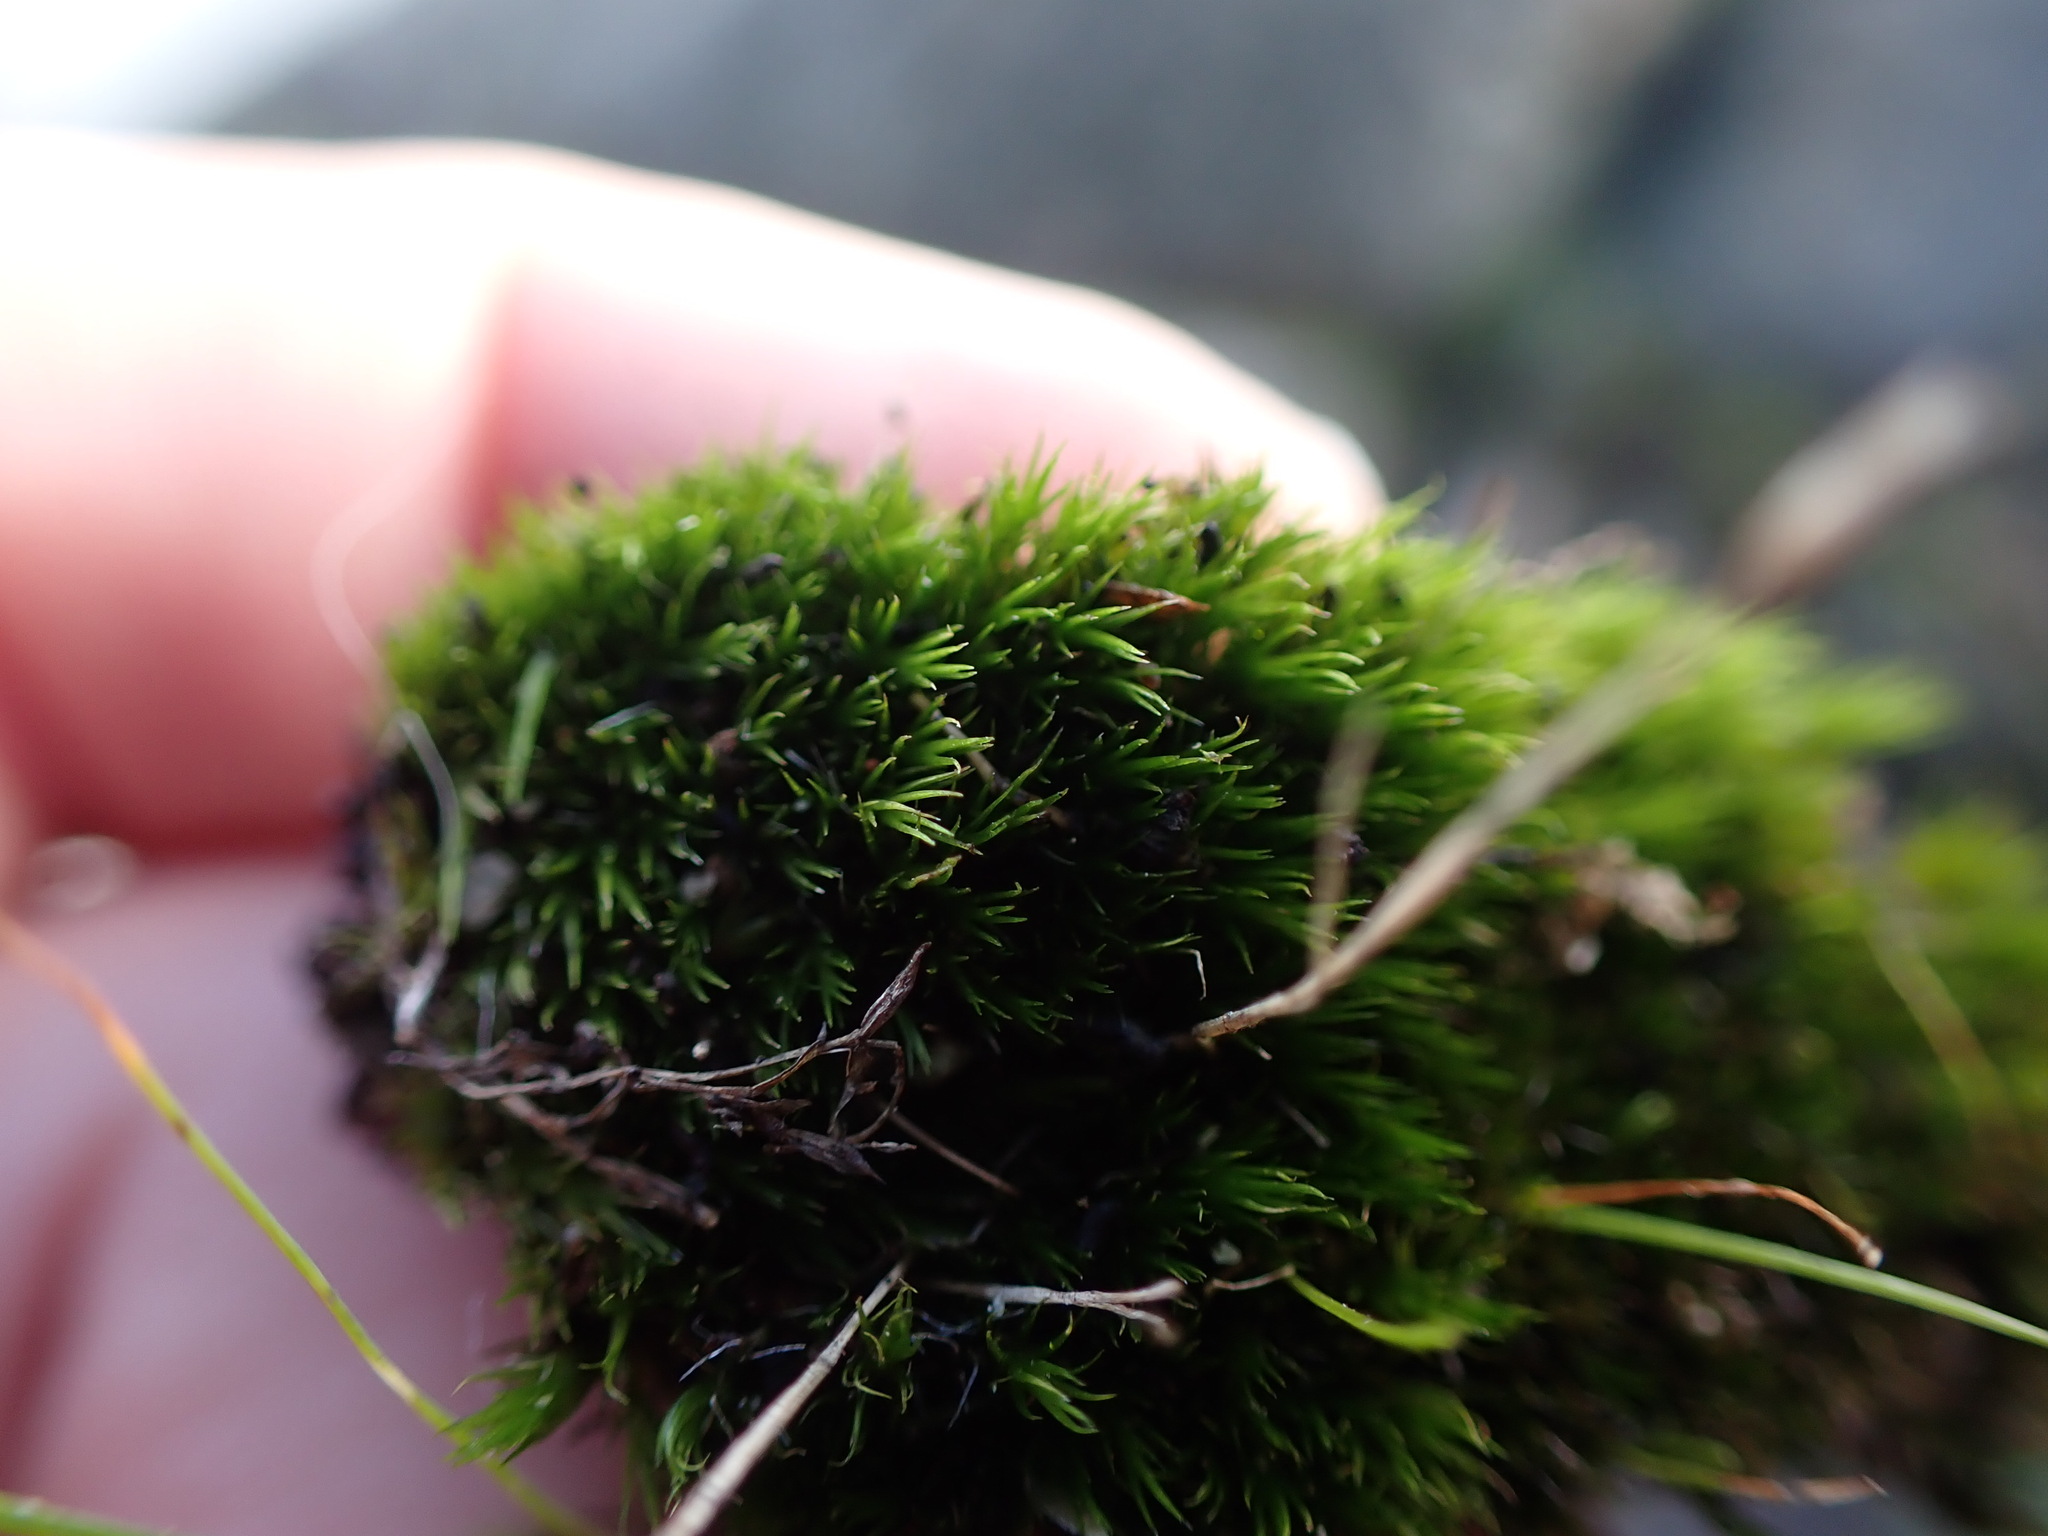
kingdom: Plantae
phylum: Bryophyta
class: Bryopsida
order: Dicranales
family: Leucobryaceae
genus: Campylopus
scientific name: Campylopus fragilis
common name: Brittle swan-neck moss
